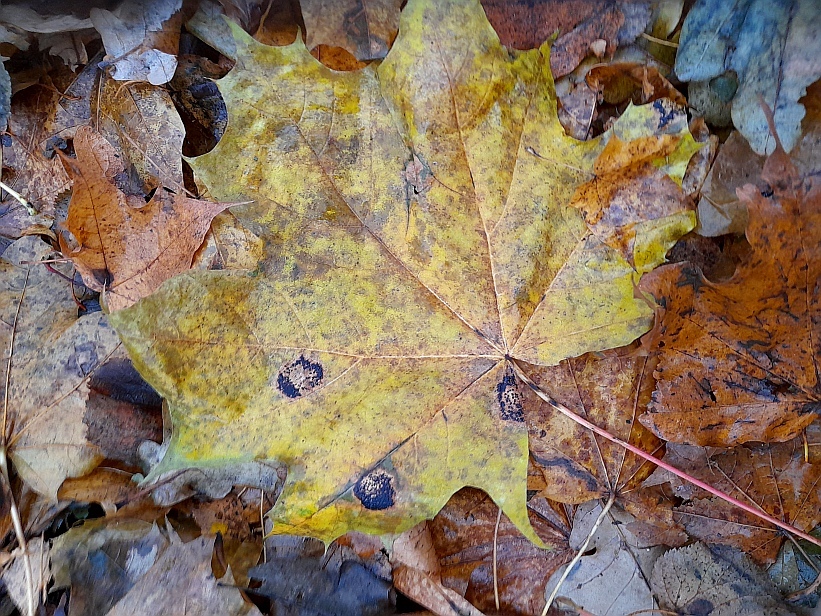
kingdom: Plantae
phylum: Tracheophyta
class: Magnoliopsida
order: Sapindales
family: Sapindaceae
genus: Acer
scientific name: Acer platanoides
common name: Norway maple
